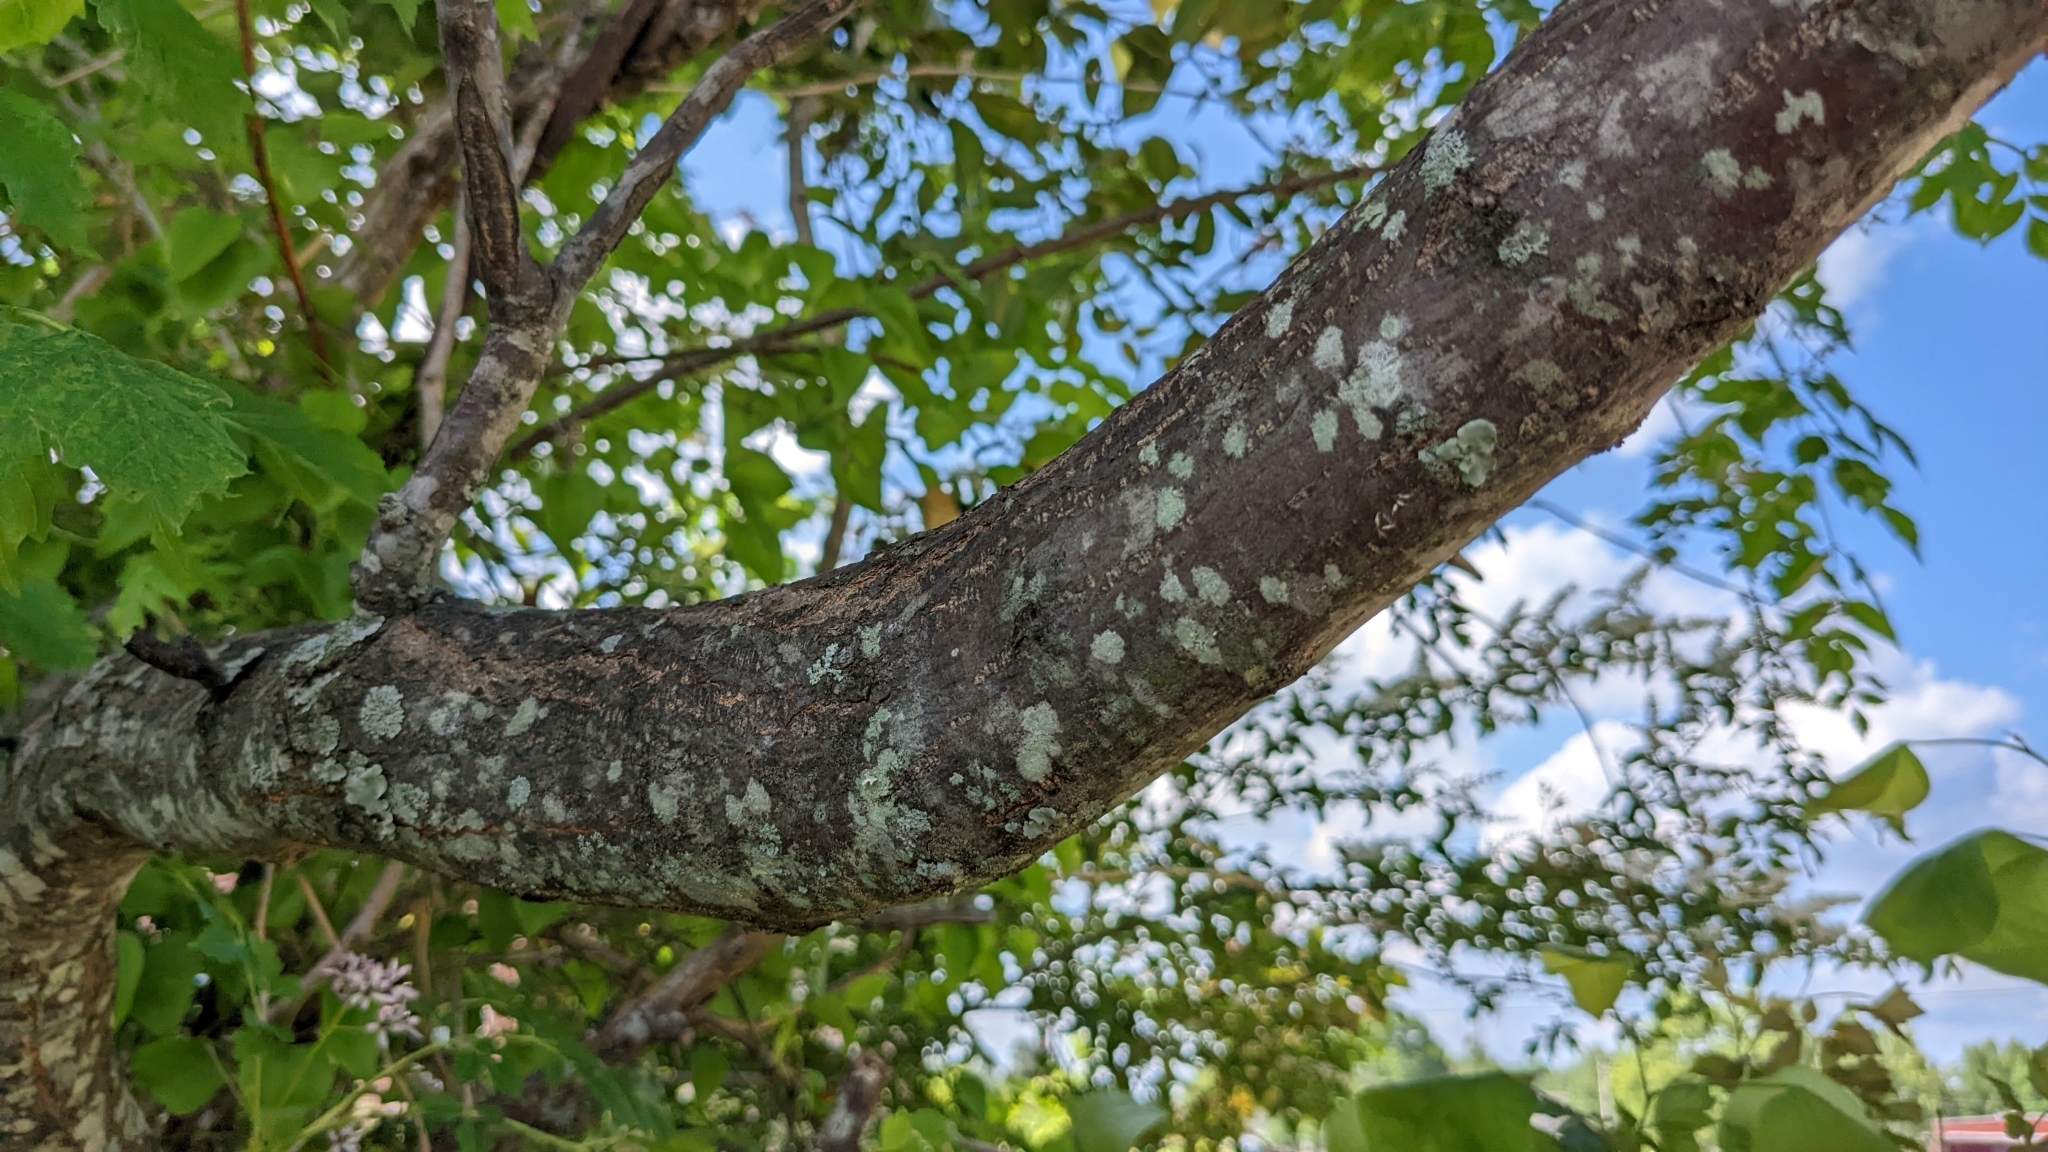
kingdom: Plantae
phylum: Tracheophyta
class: Magnoliopsida
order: Sapindales
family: Meliaceae
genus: Melia
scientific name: Melia azedarach
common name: Chinaberrytree
